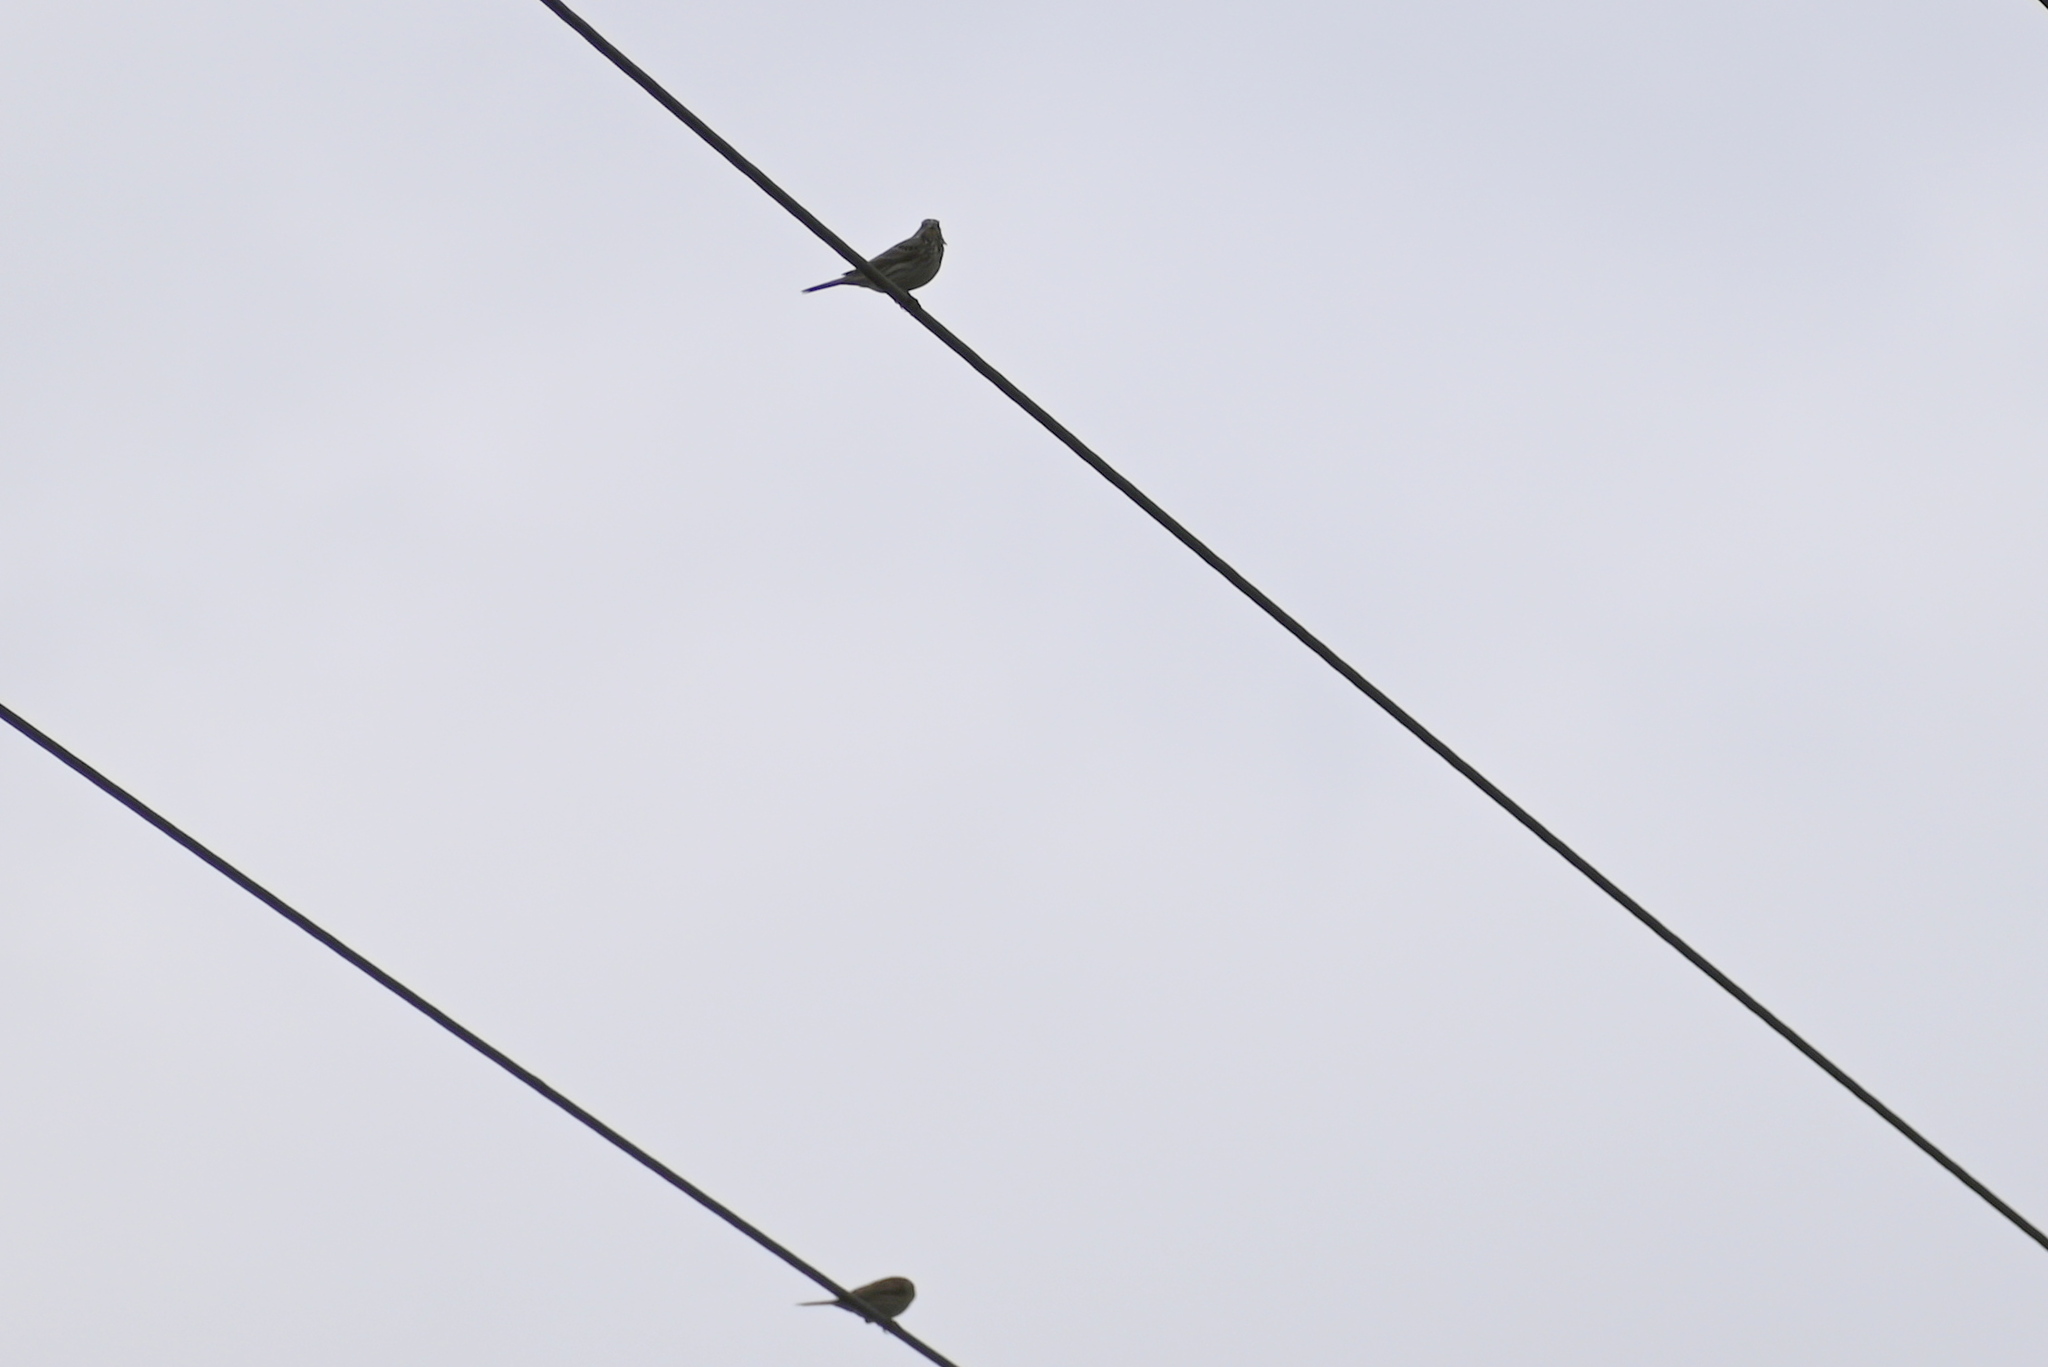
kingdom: Animalia
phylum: Chordata
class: Aves
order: Passeriformes
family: Emberizidae
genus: Emberiza
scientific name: Emberiza calandra
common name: Corn bunting
